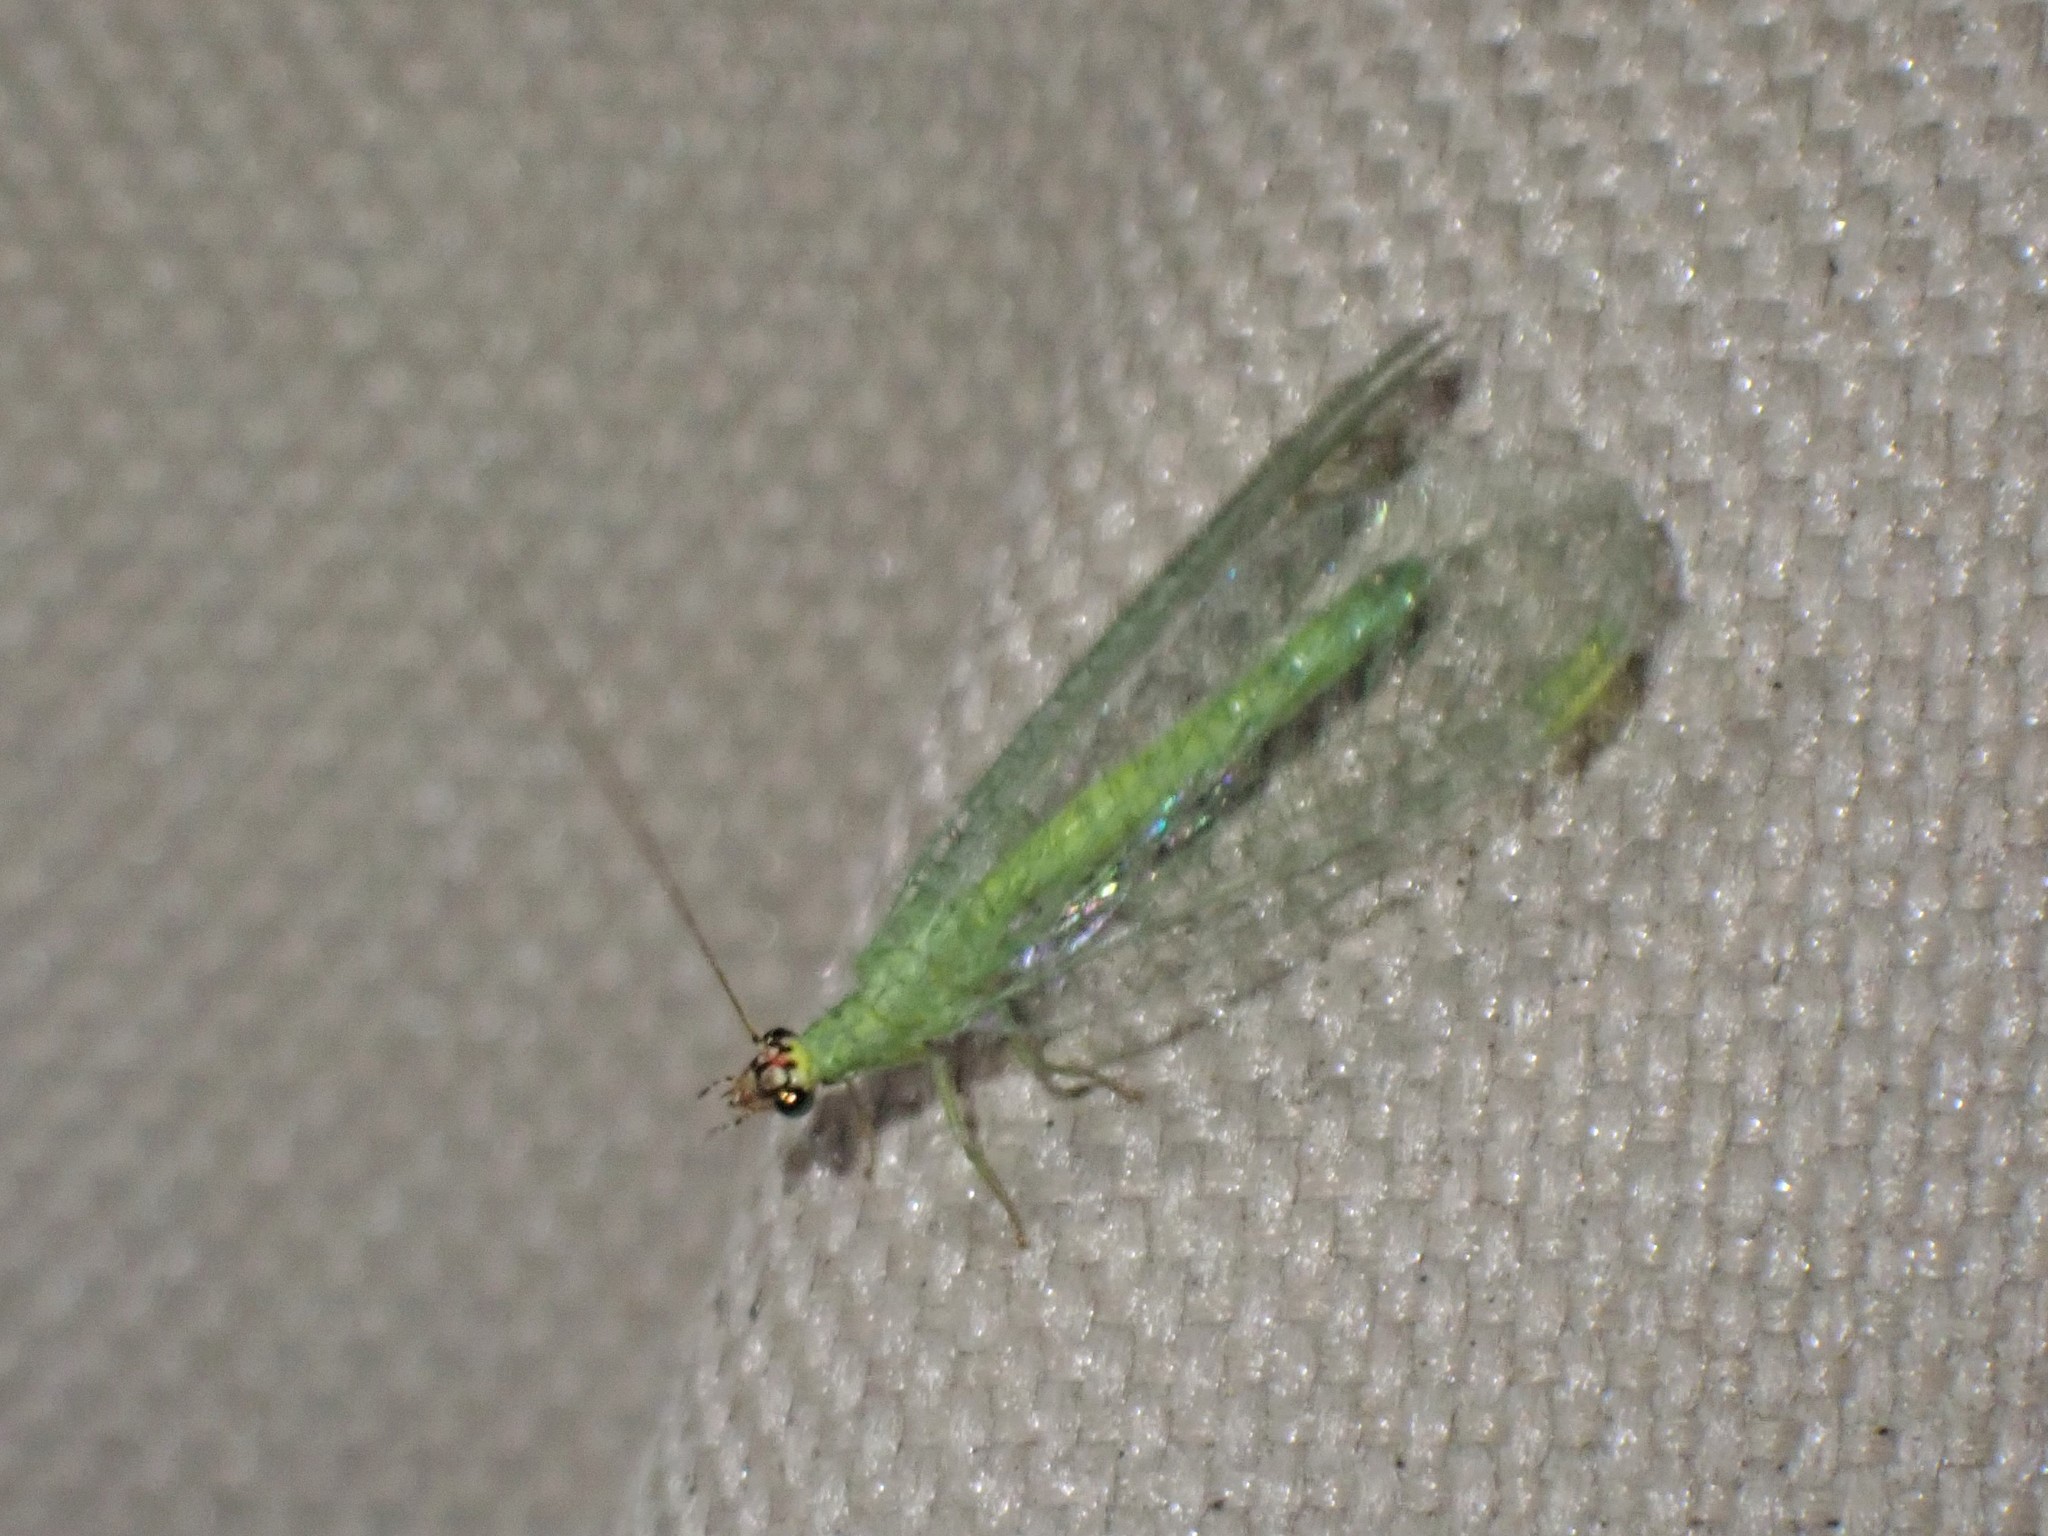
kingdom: Animalia
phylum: Arthropoda
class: Insecta
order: Neuroptera
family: Chrysopidae
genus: Chrysopa
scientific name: Chrysopa oculata
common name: Golden-eyed lacewing
